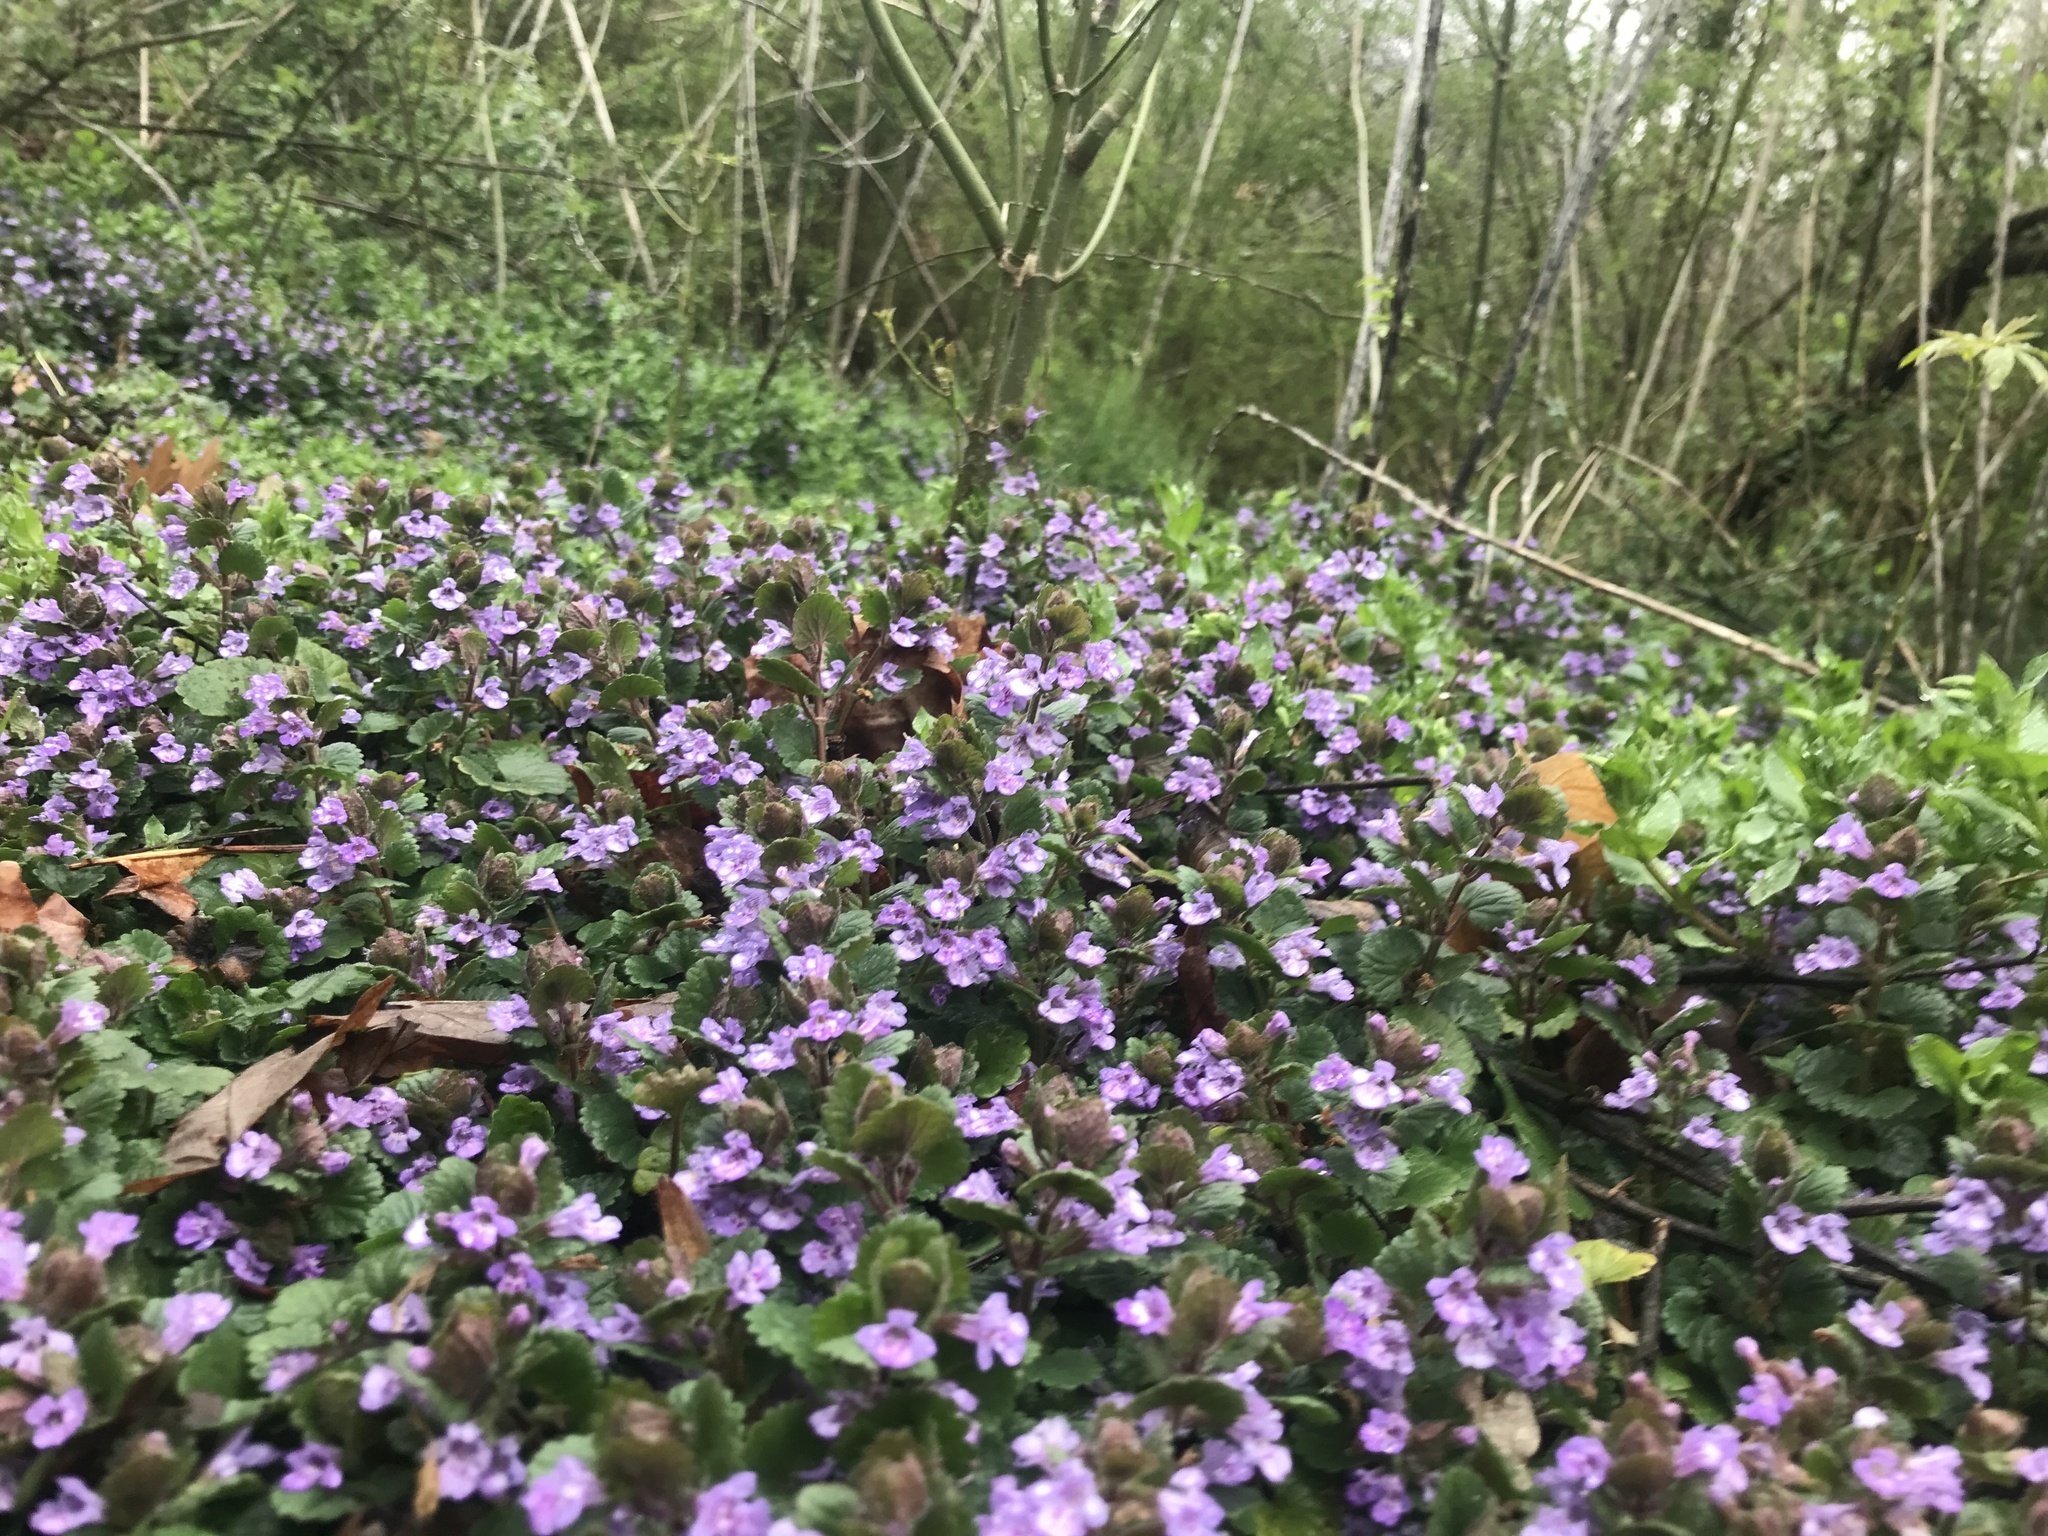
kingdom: Plantae
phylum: Tracheophyta
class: Magnoliopsida
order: Lamiales
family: Lamiaceae
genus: Glechoma
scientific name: Glechoma hederacea
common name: Ground ivy
